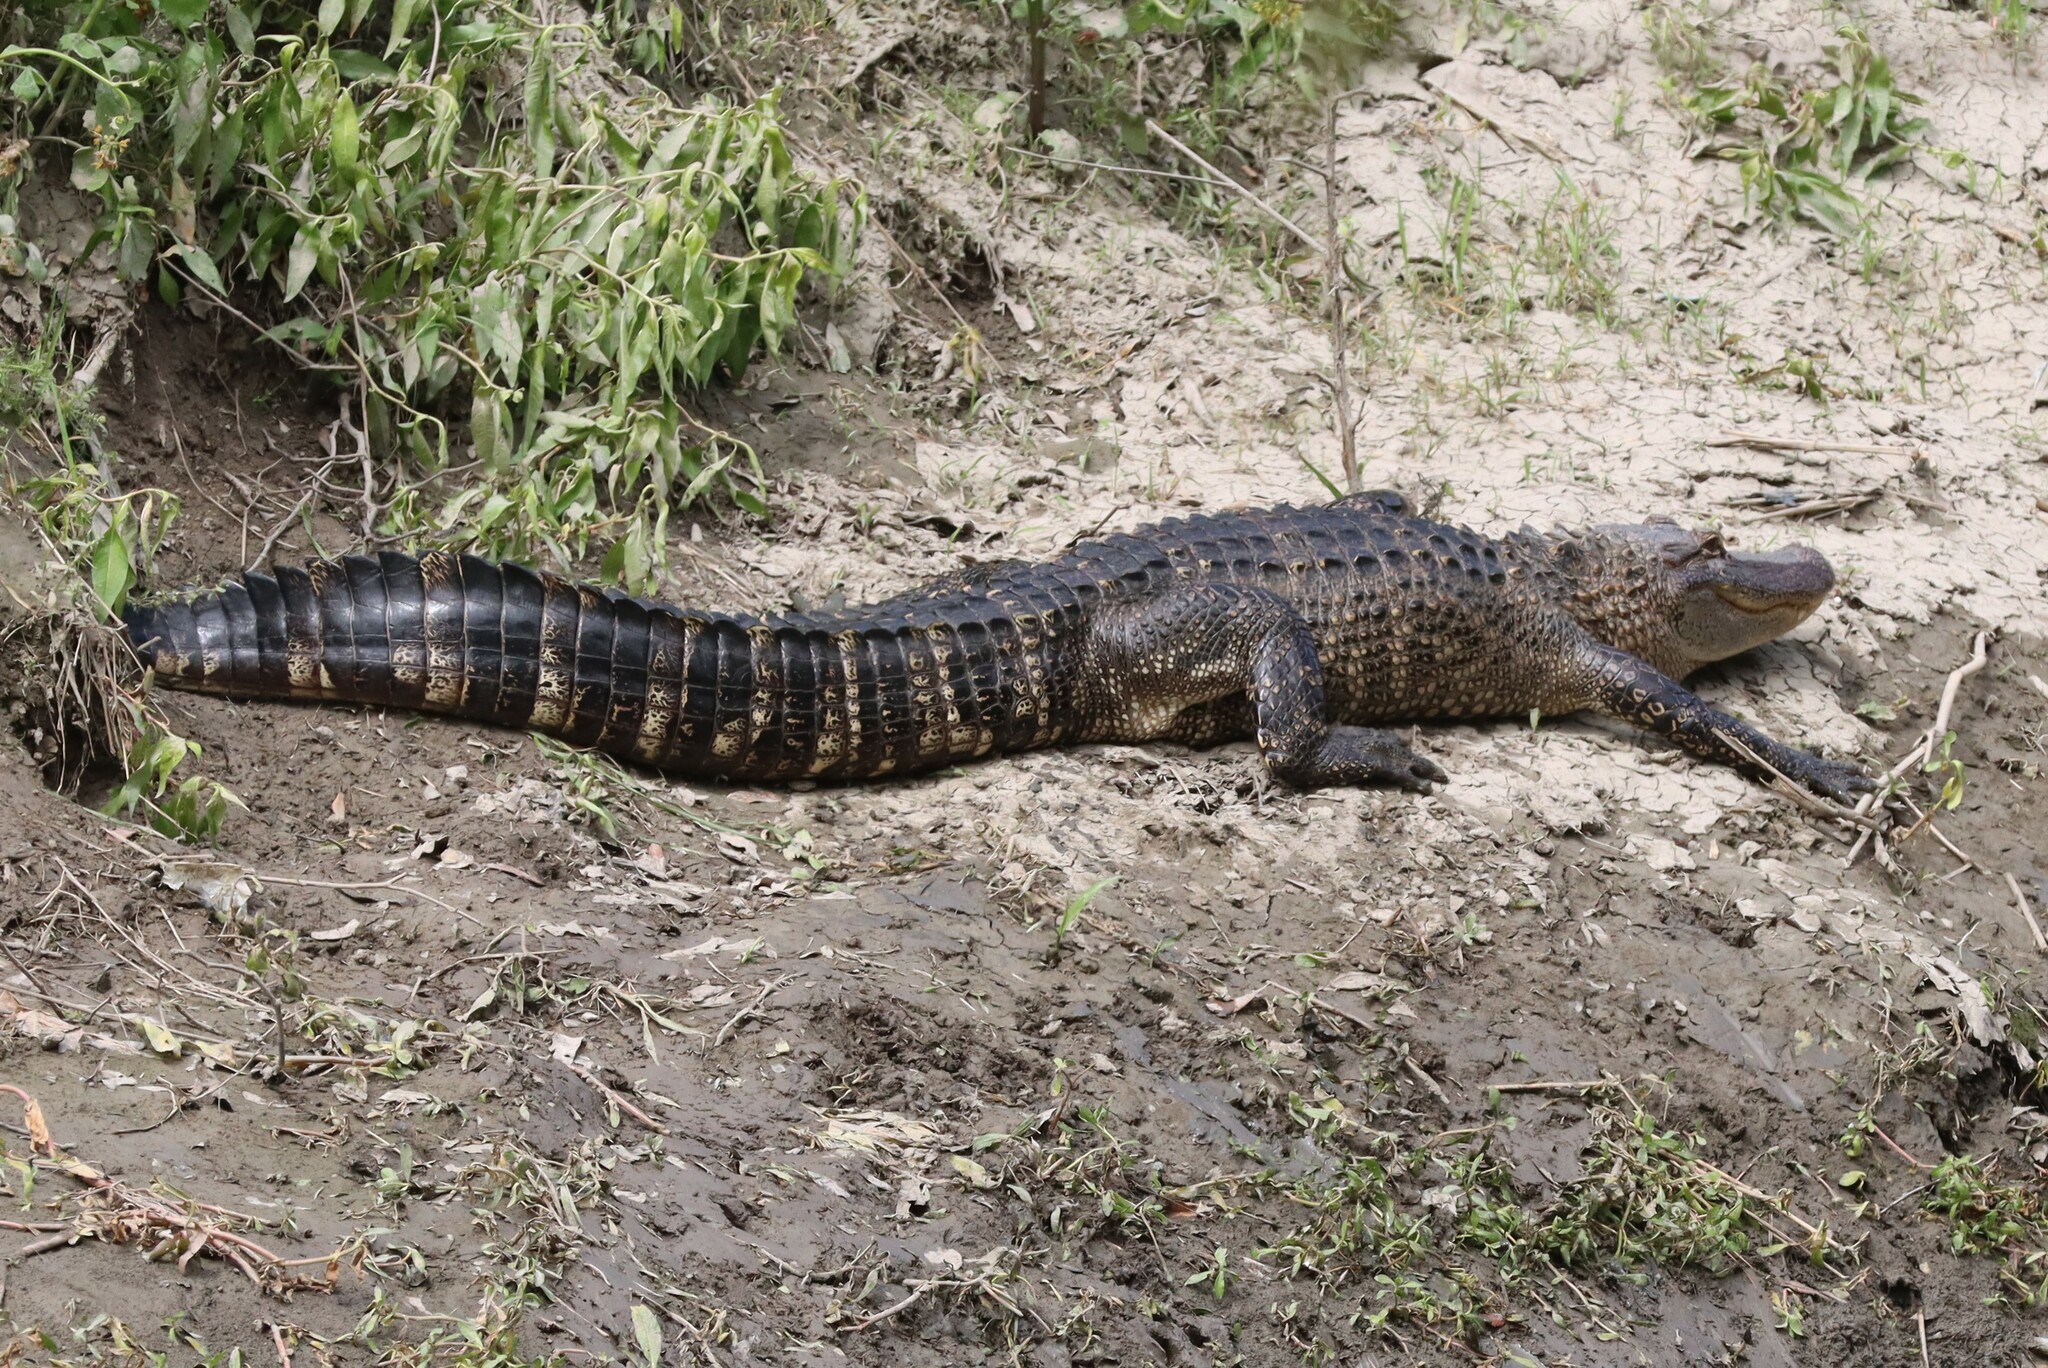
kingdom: Animalia
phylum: Chordata
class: Crocodylia
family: Alligatoridae
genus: Alligator
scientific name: Alligator mississippiensis
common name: American alligator
